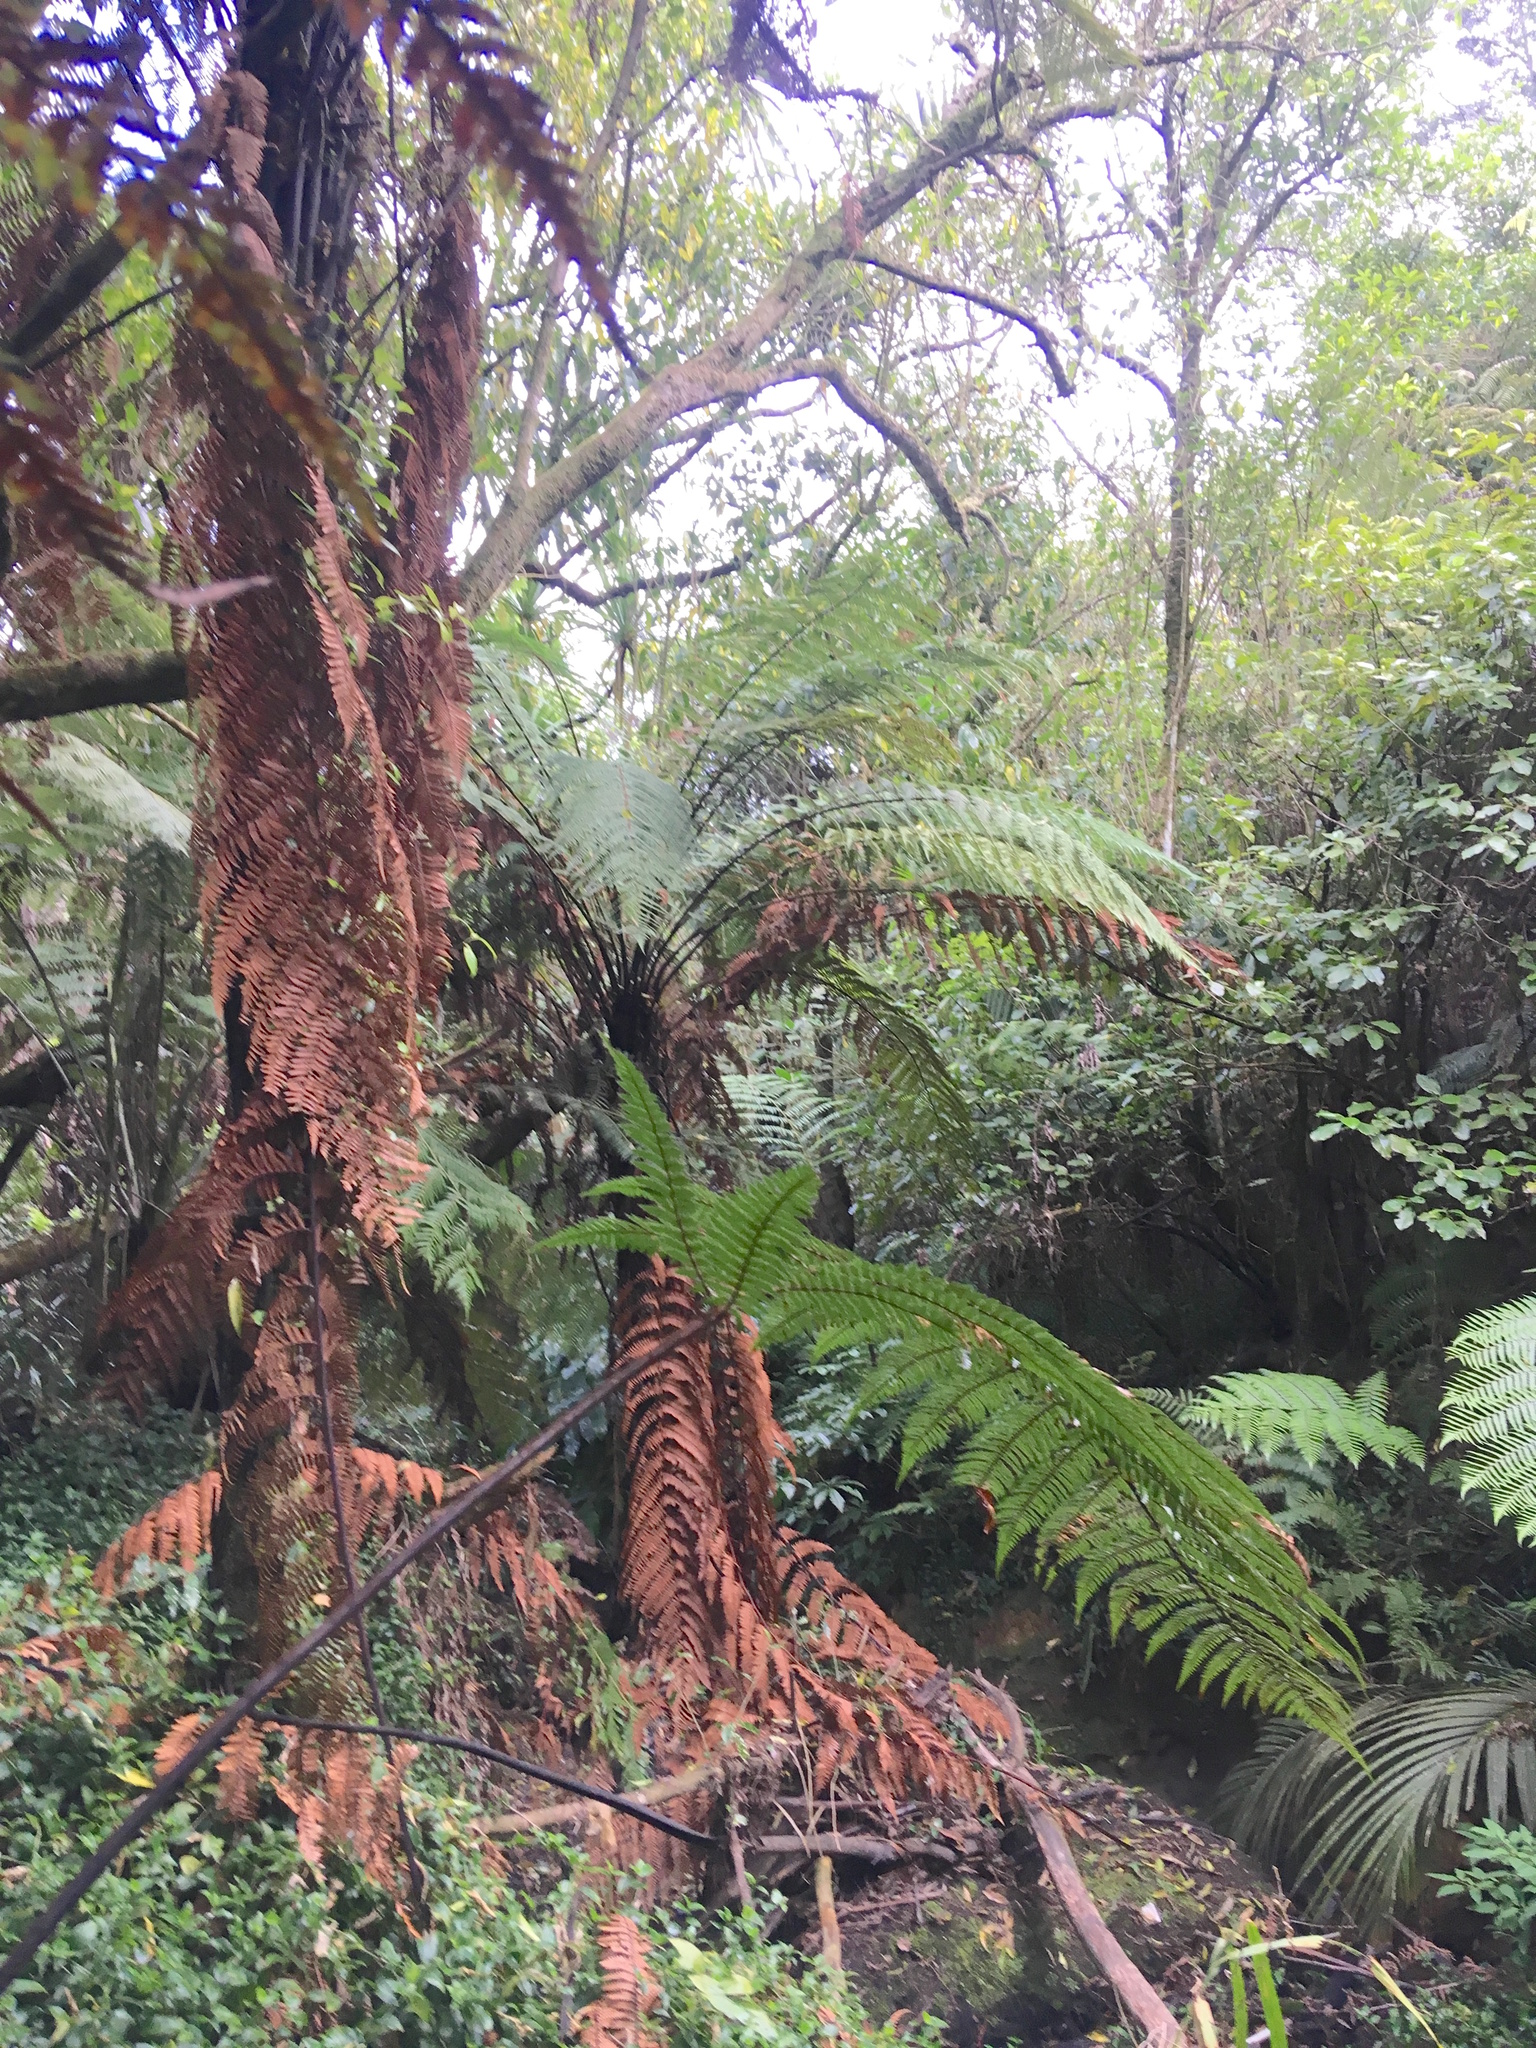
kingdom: Plantae
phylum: Tracheophyta
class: Polypodiopsida
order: Cyatheales
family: Dicksoniaceae
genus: Dicksonia
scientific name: Dicksonia squarrosa
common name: Hard treefern
